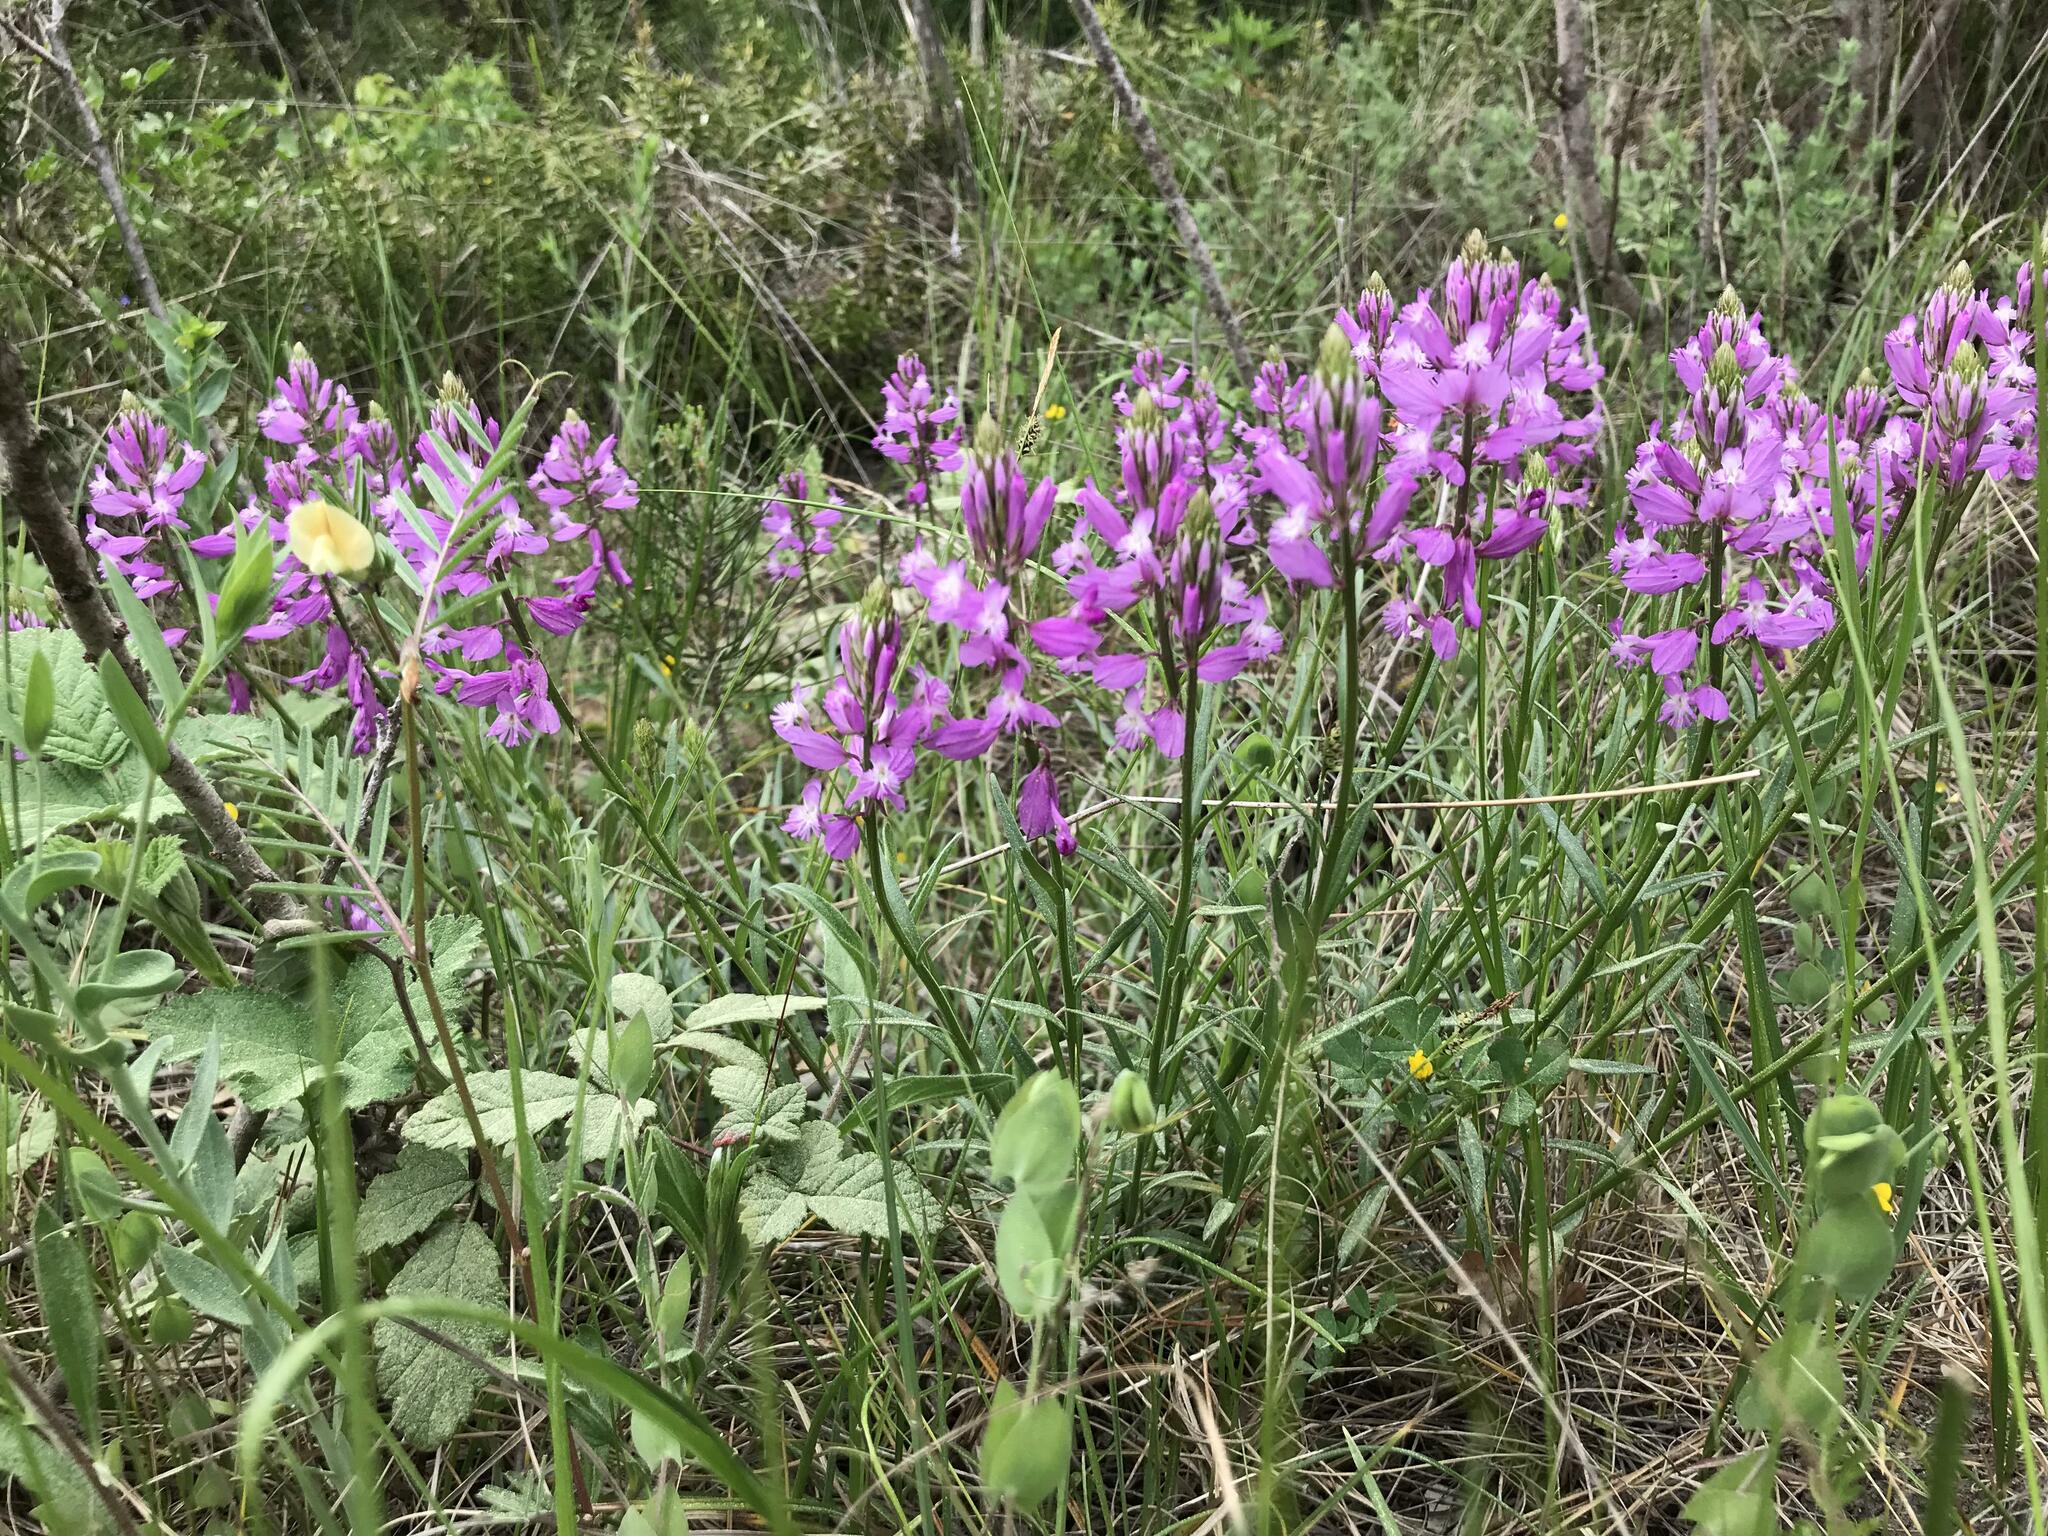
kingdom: Plantae
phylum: Tracheophyta
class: Magnoliopsida
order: Fabales
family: Polygalaceae
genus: Polygala
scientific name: Polygala major
